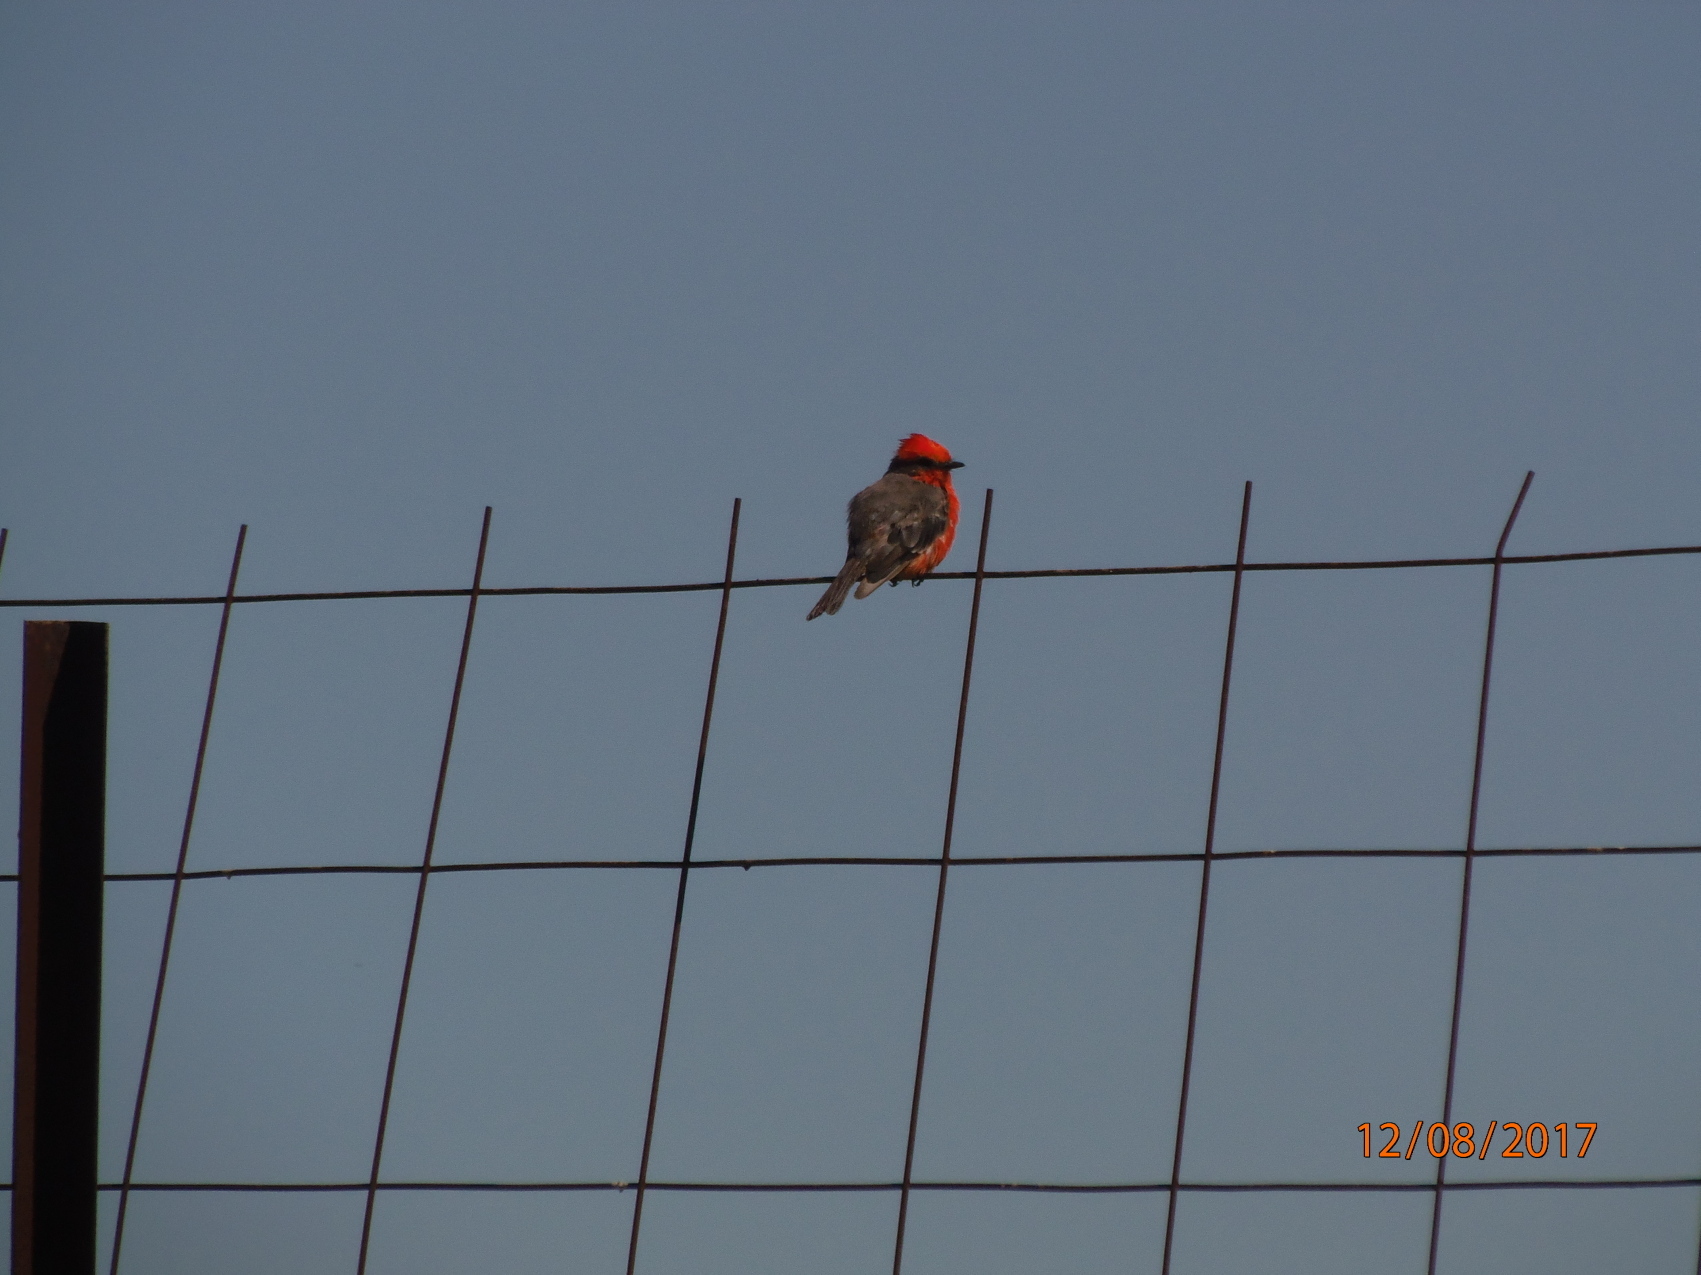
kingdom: Animalia
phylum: Chordata
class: Aves
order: Passeriformes
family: Tyrannidae
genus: Pyrocephalus
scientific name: Pyrocephalus rubinus
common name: Vermilion flycatcher
